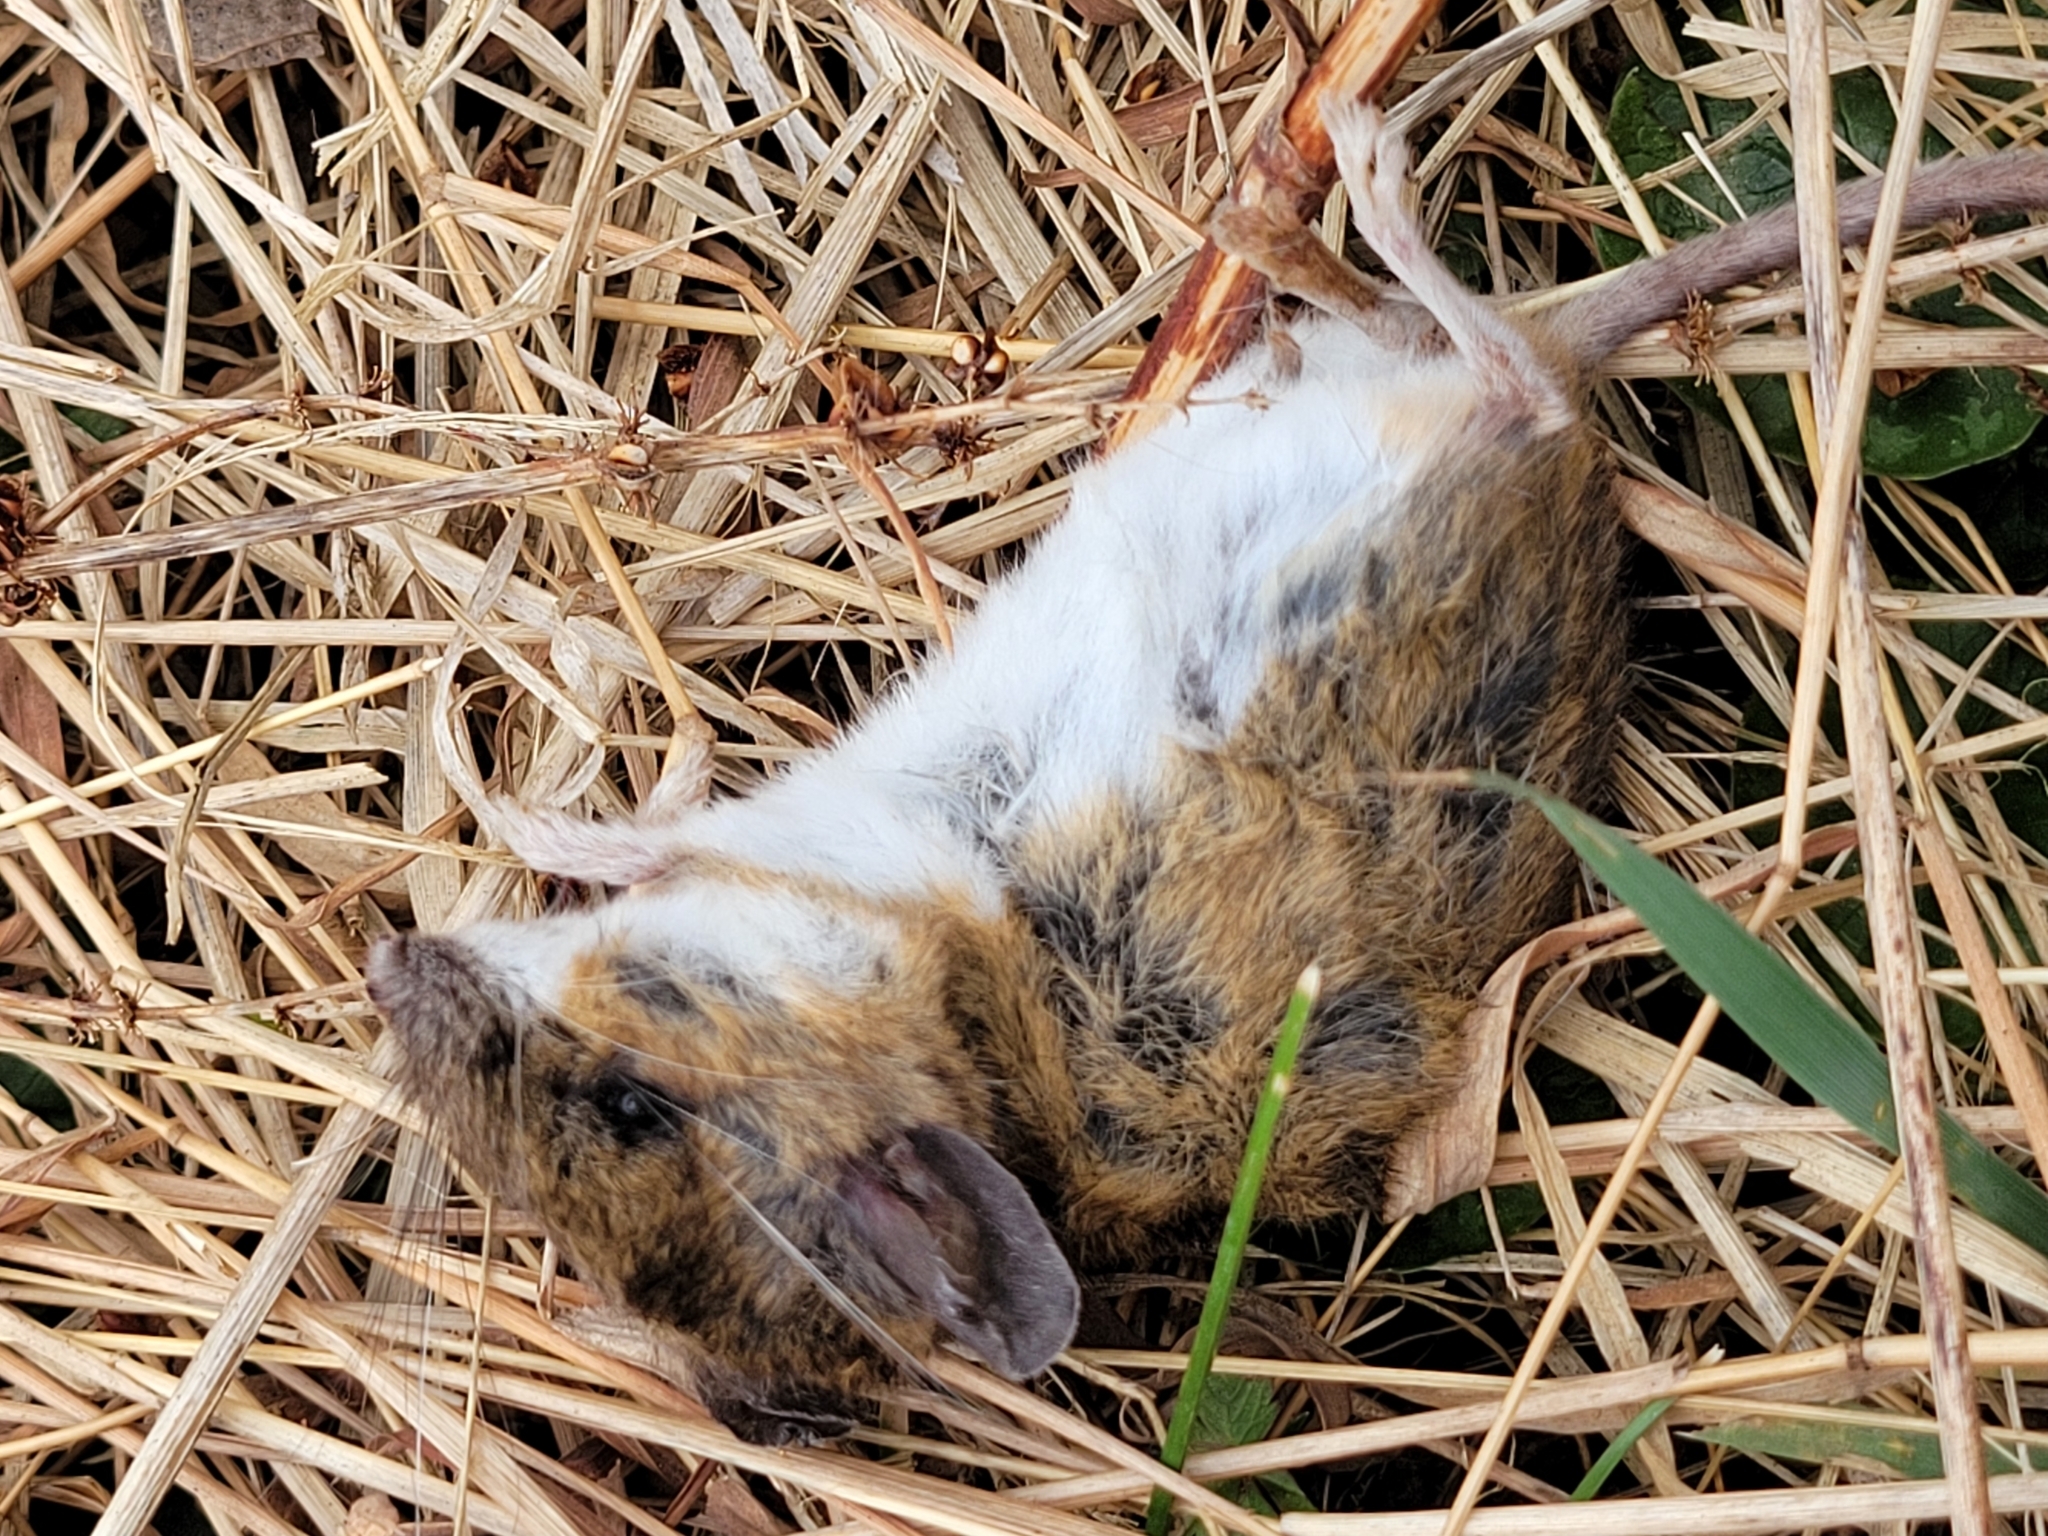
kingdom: Animalia
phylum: Chordata
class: Mammalia
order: Rodentia
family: Cricetidae
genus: Peromyscus
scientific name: Peromyscus leucopus
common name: White-footed deermouse
